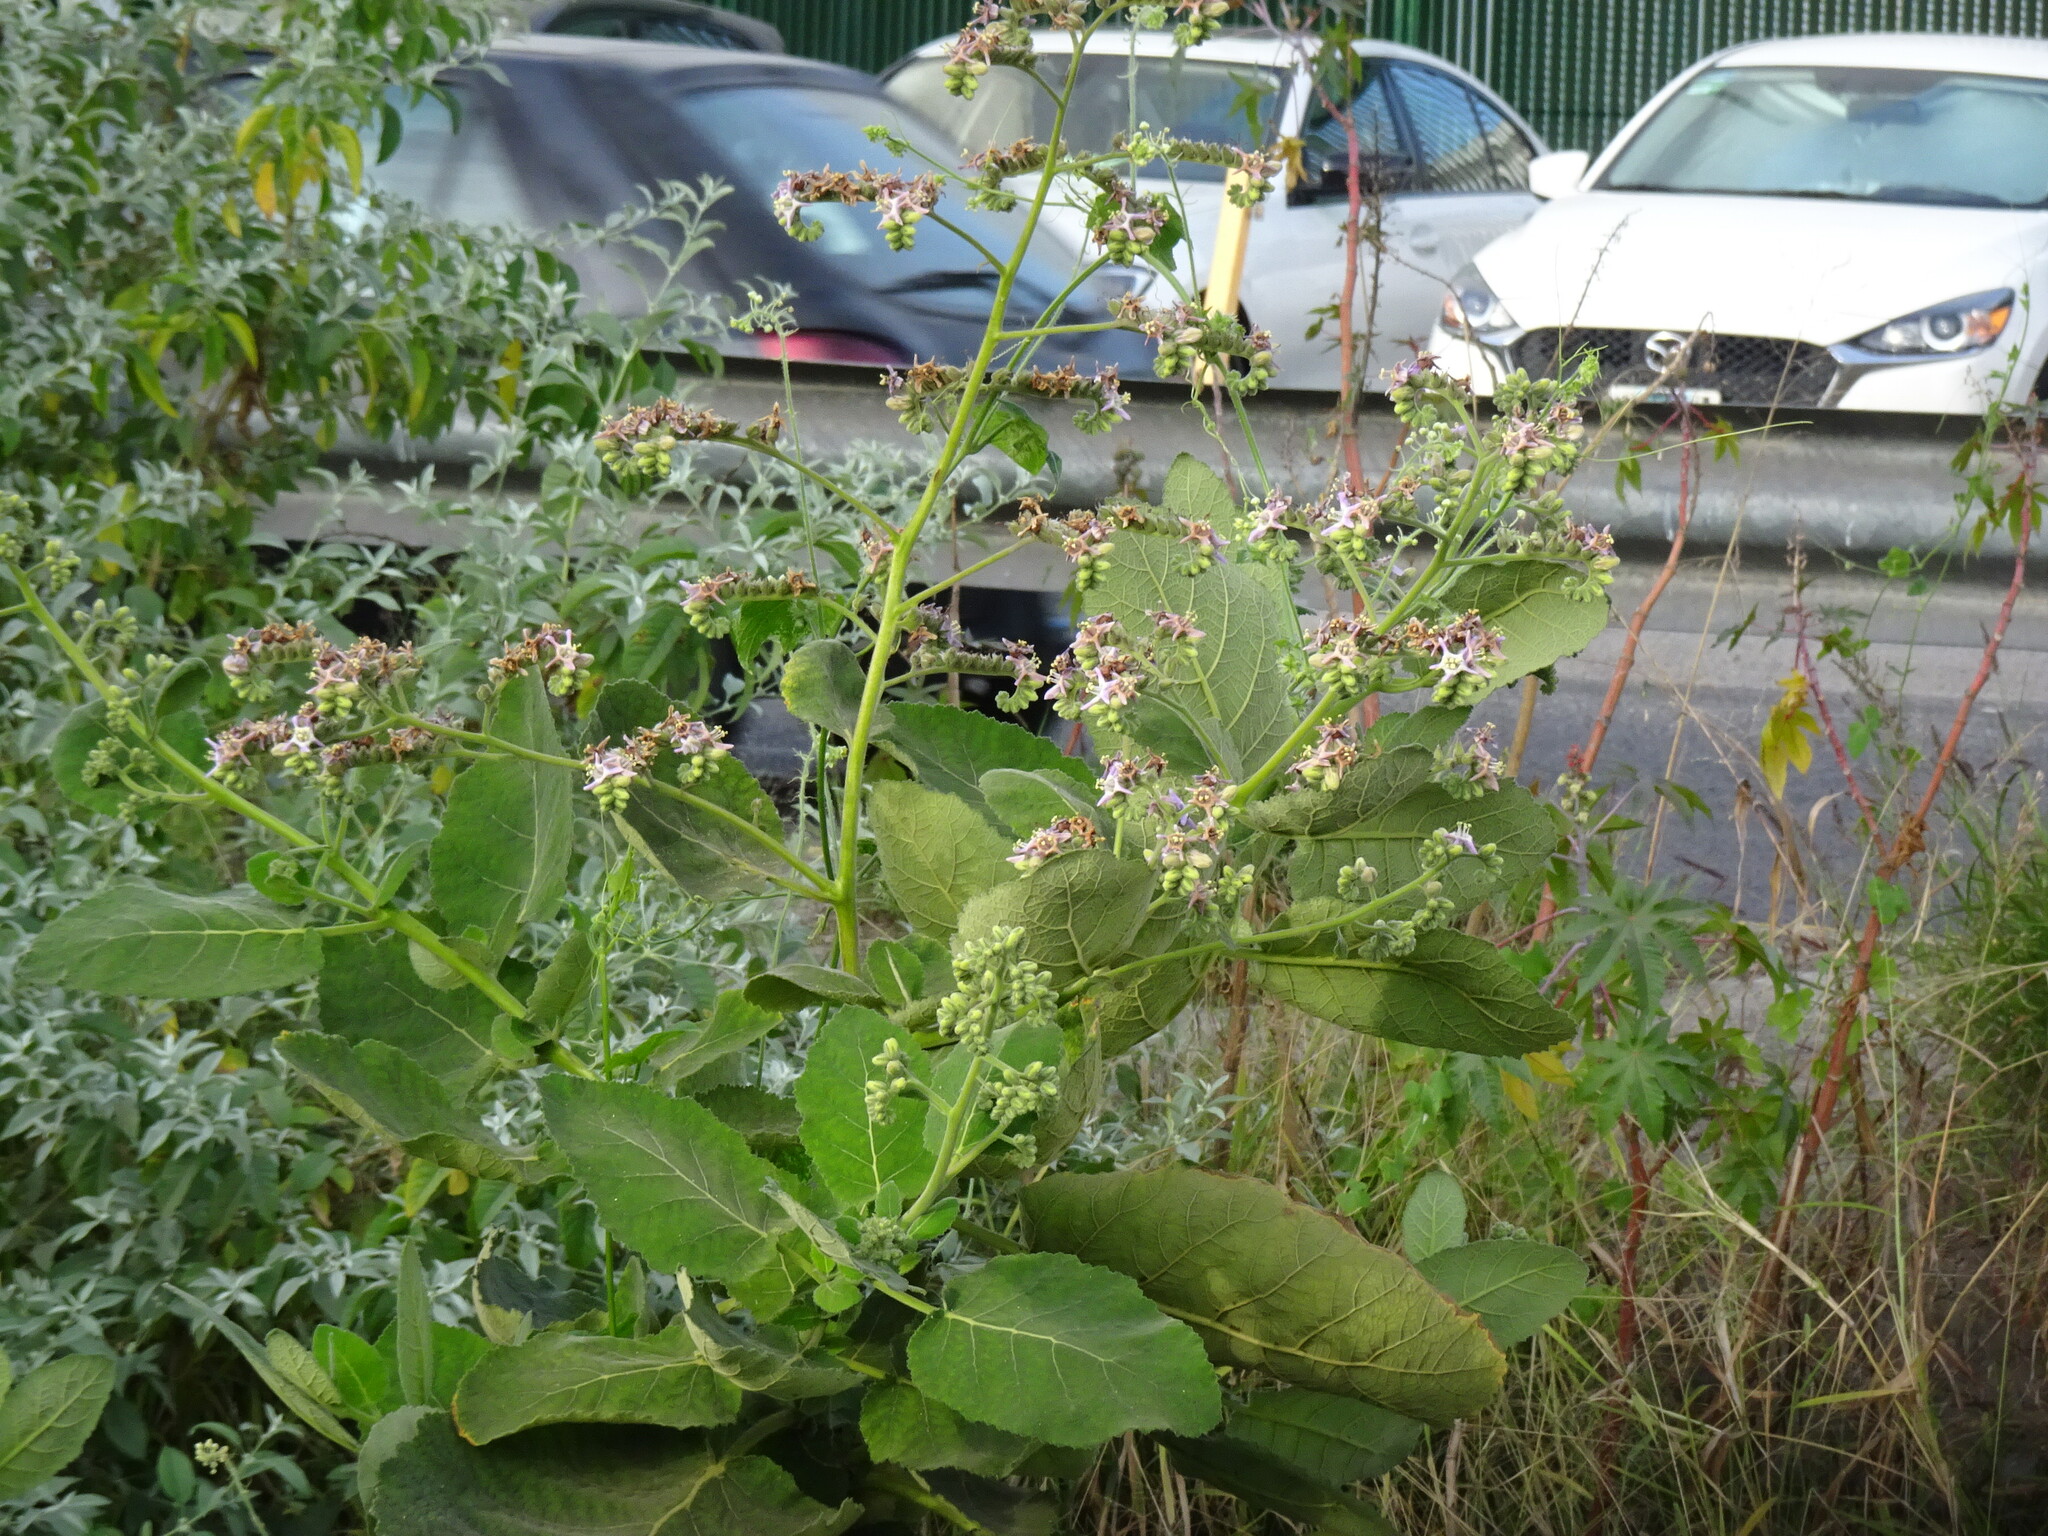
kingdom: Plantae
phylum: Tracheophyta
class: Magnoliopsida
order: Boraginales
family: Namaceae
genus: Wigandia
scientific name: Wigandia urens
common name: Caracus wigandia
